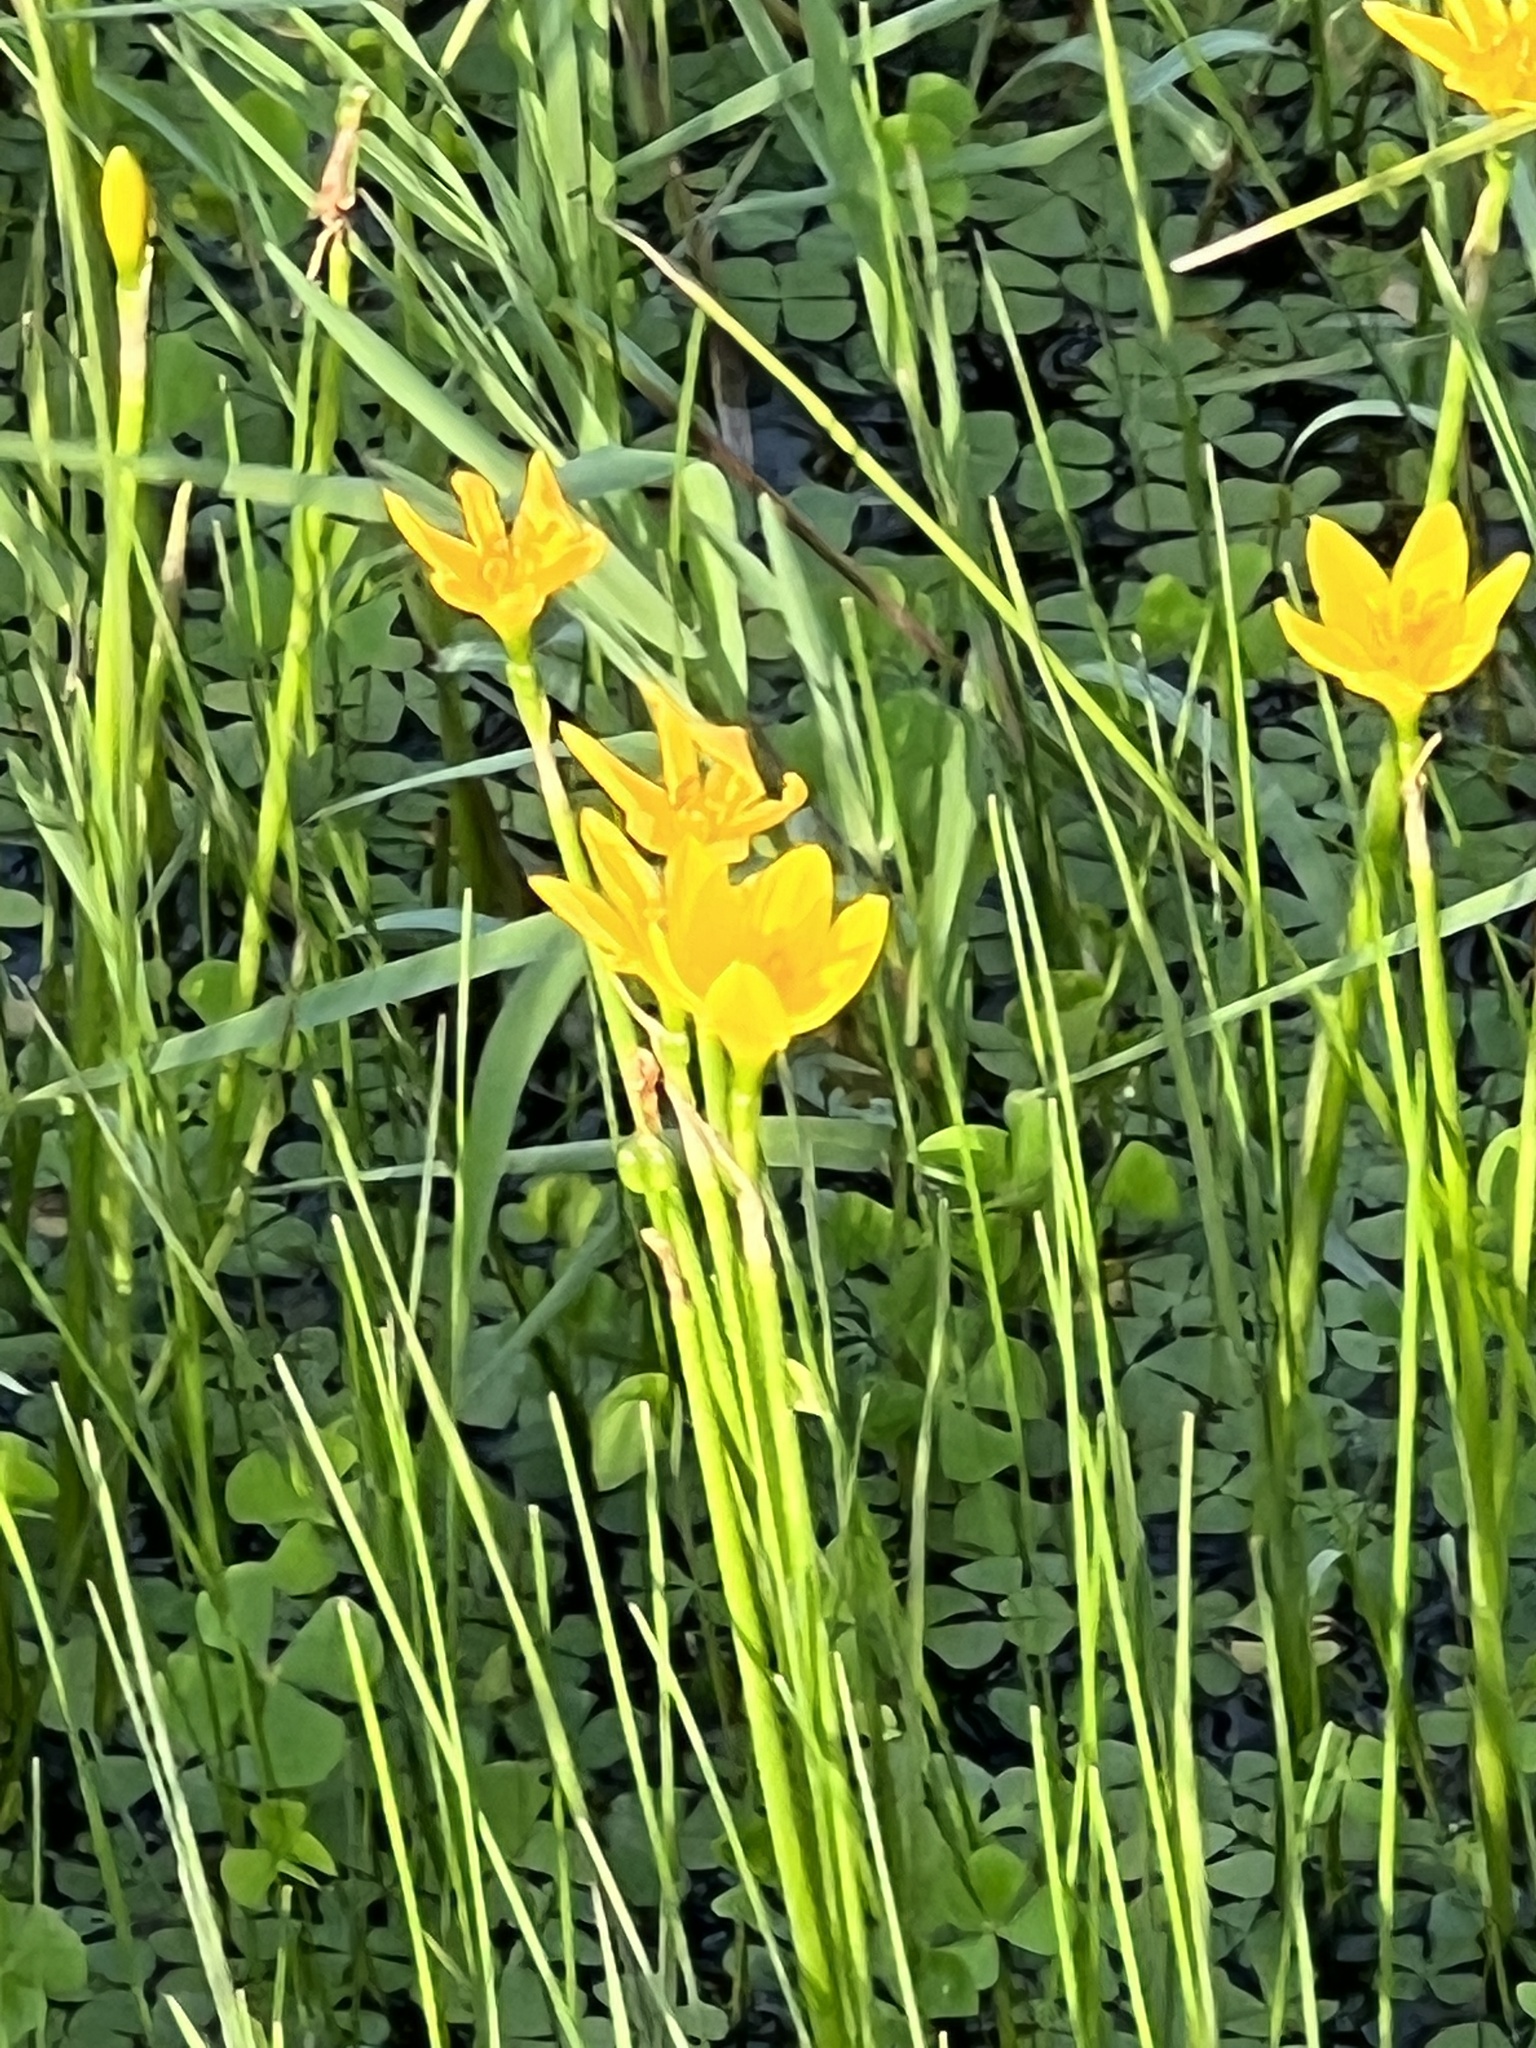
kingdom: Plantae
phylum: Tracheophyta
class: Liliopsida
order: Asparagales
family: Amaryllidaceae
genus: Zephyranthes
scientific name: Zephyranthes pulchella
